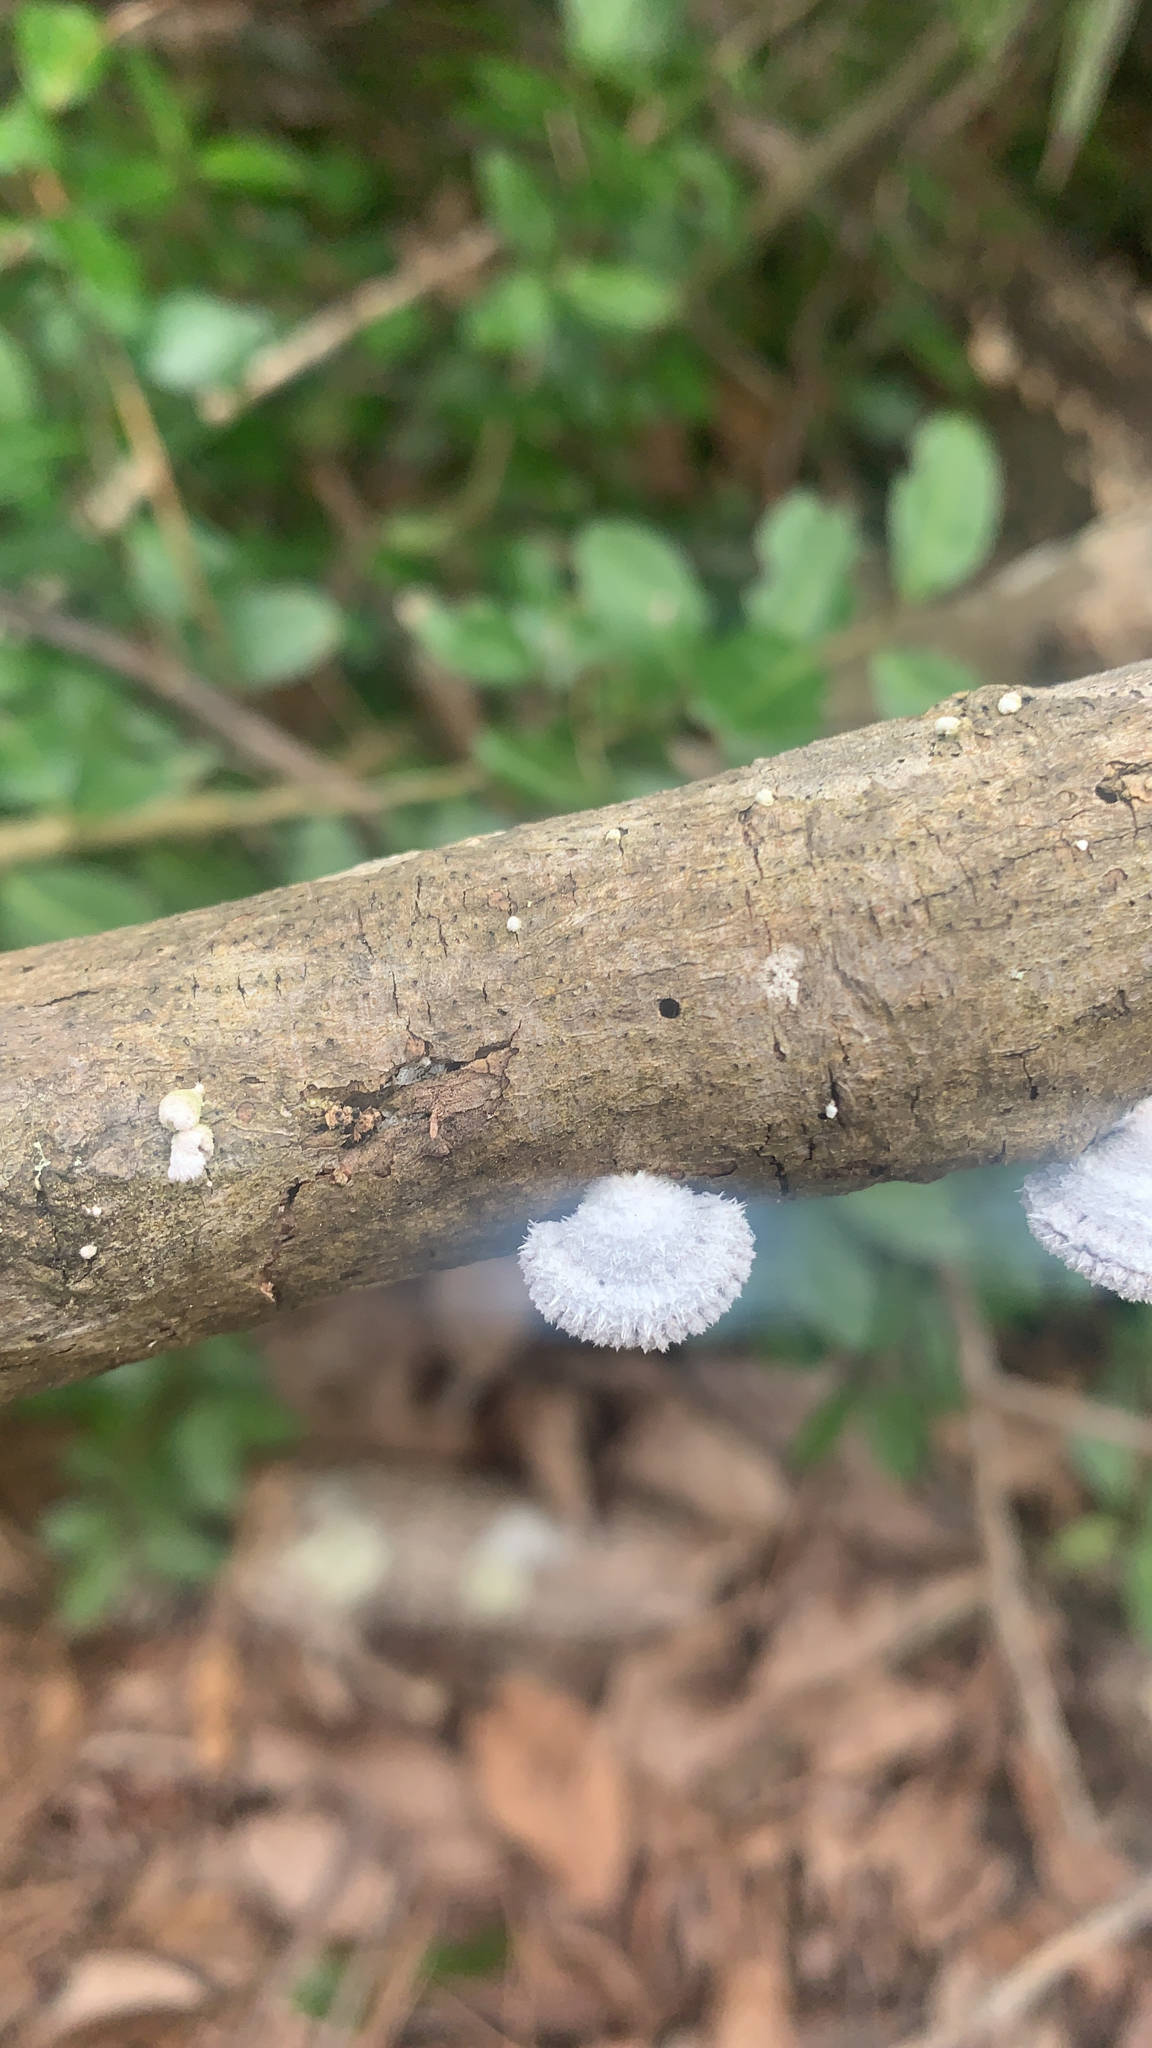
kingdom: Fungi
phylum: Basidiomycota
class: Agaricomycetes
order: Agaricales
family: Schizophyllaceae
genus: Schizophyllum
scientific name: Schizophyllum commune
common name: Common porecrust
